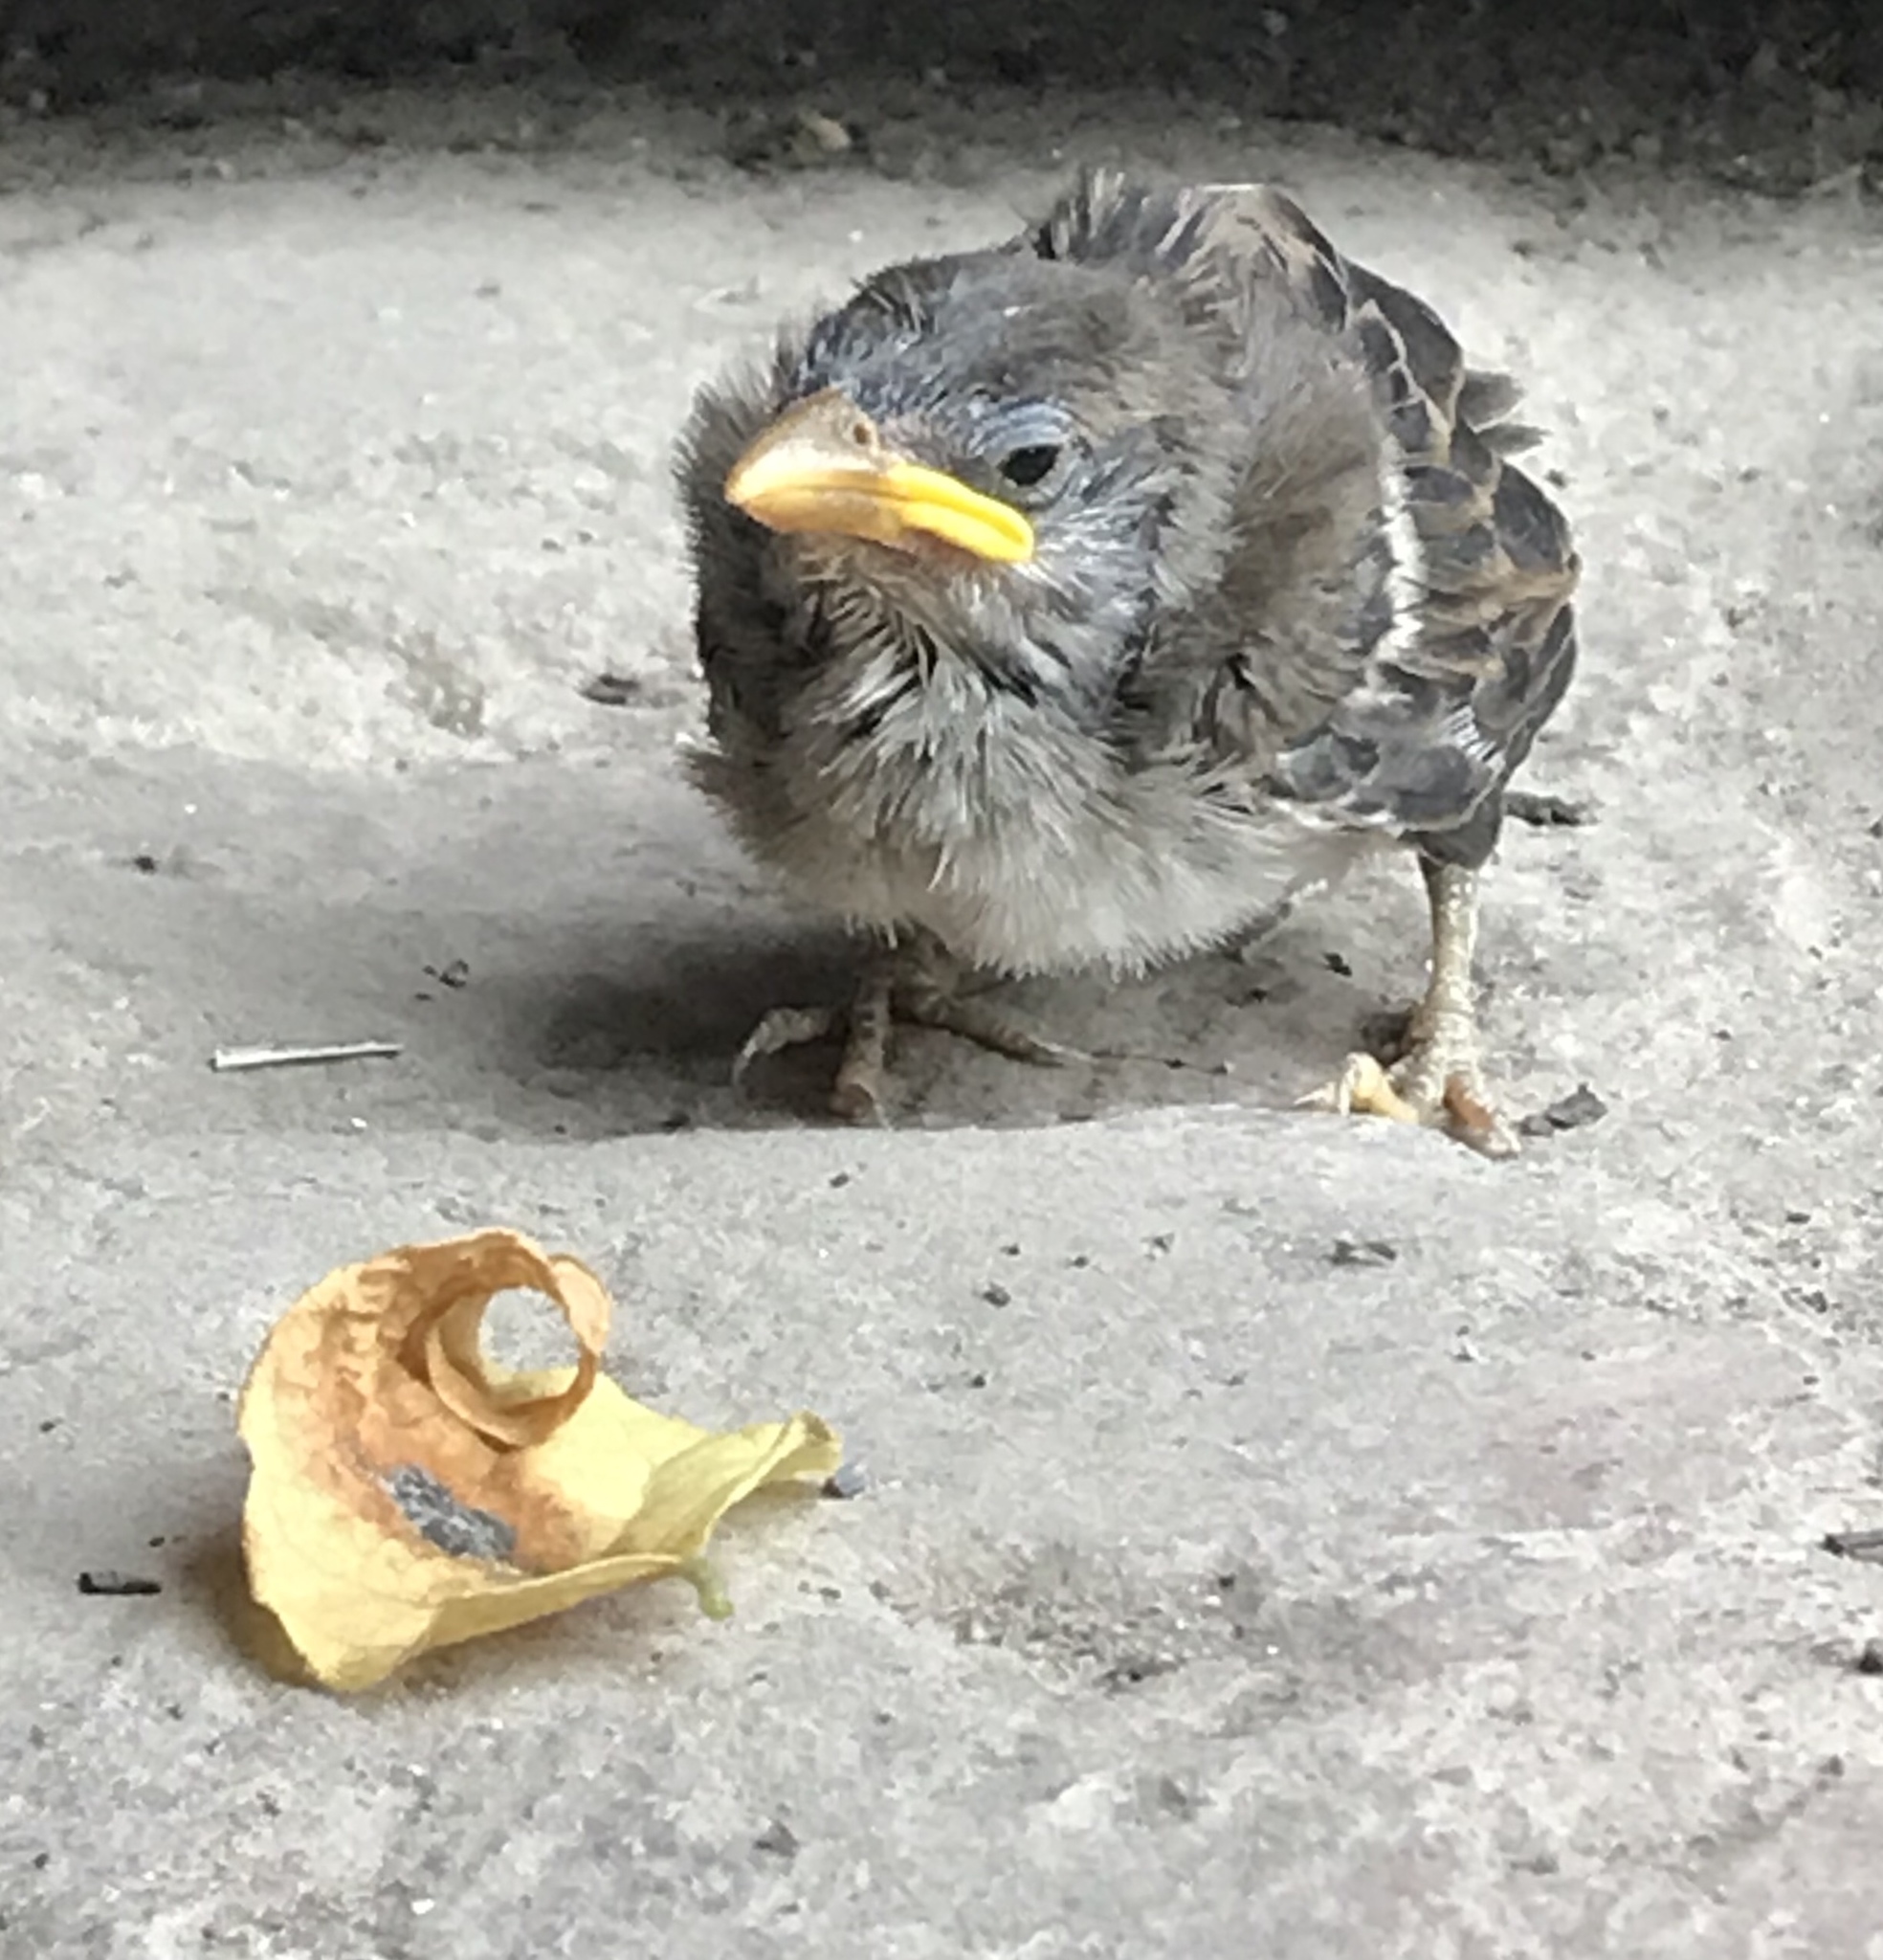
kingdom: Animalia
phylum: Chordata
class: Aves
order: Passeriformes
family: Passeridae
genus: Passer
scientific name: Passer italiae
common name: Italian sparrow
